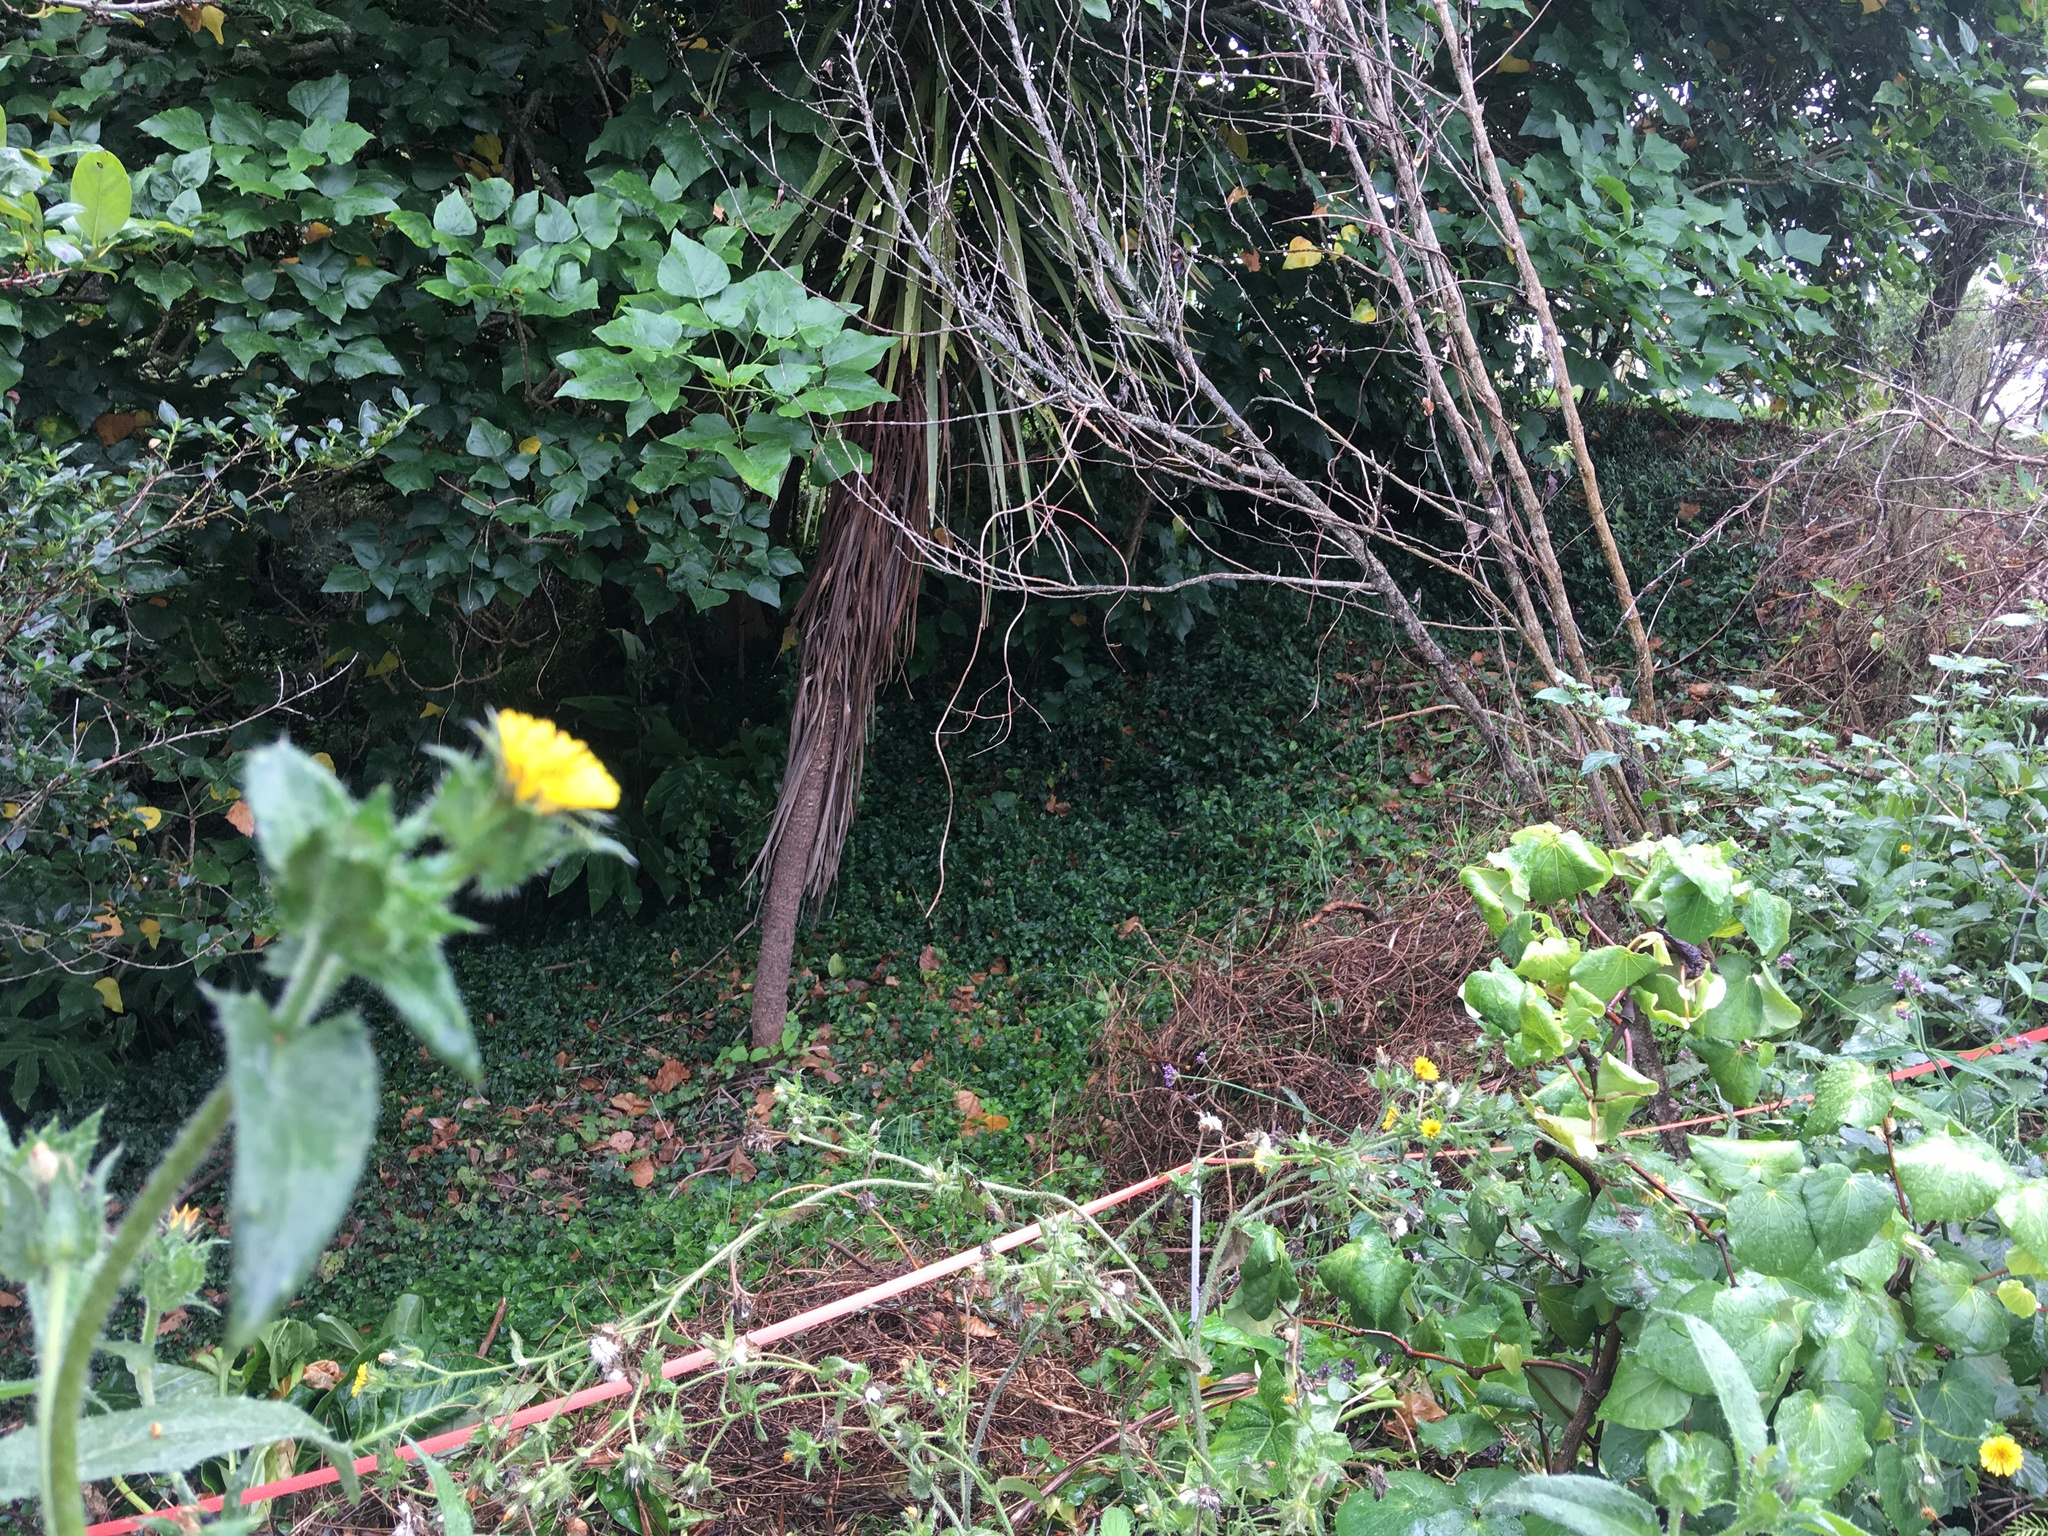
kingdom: Plantae
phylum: Tracheophyta
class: Magnoliopsida
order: Piperales
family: Piperaceae
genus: Macropiper
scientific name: Macropiper excelsum
